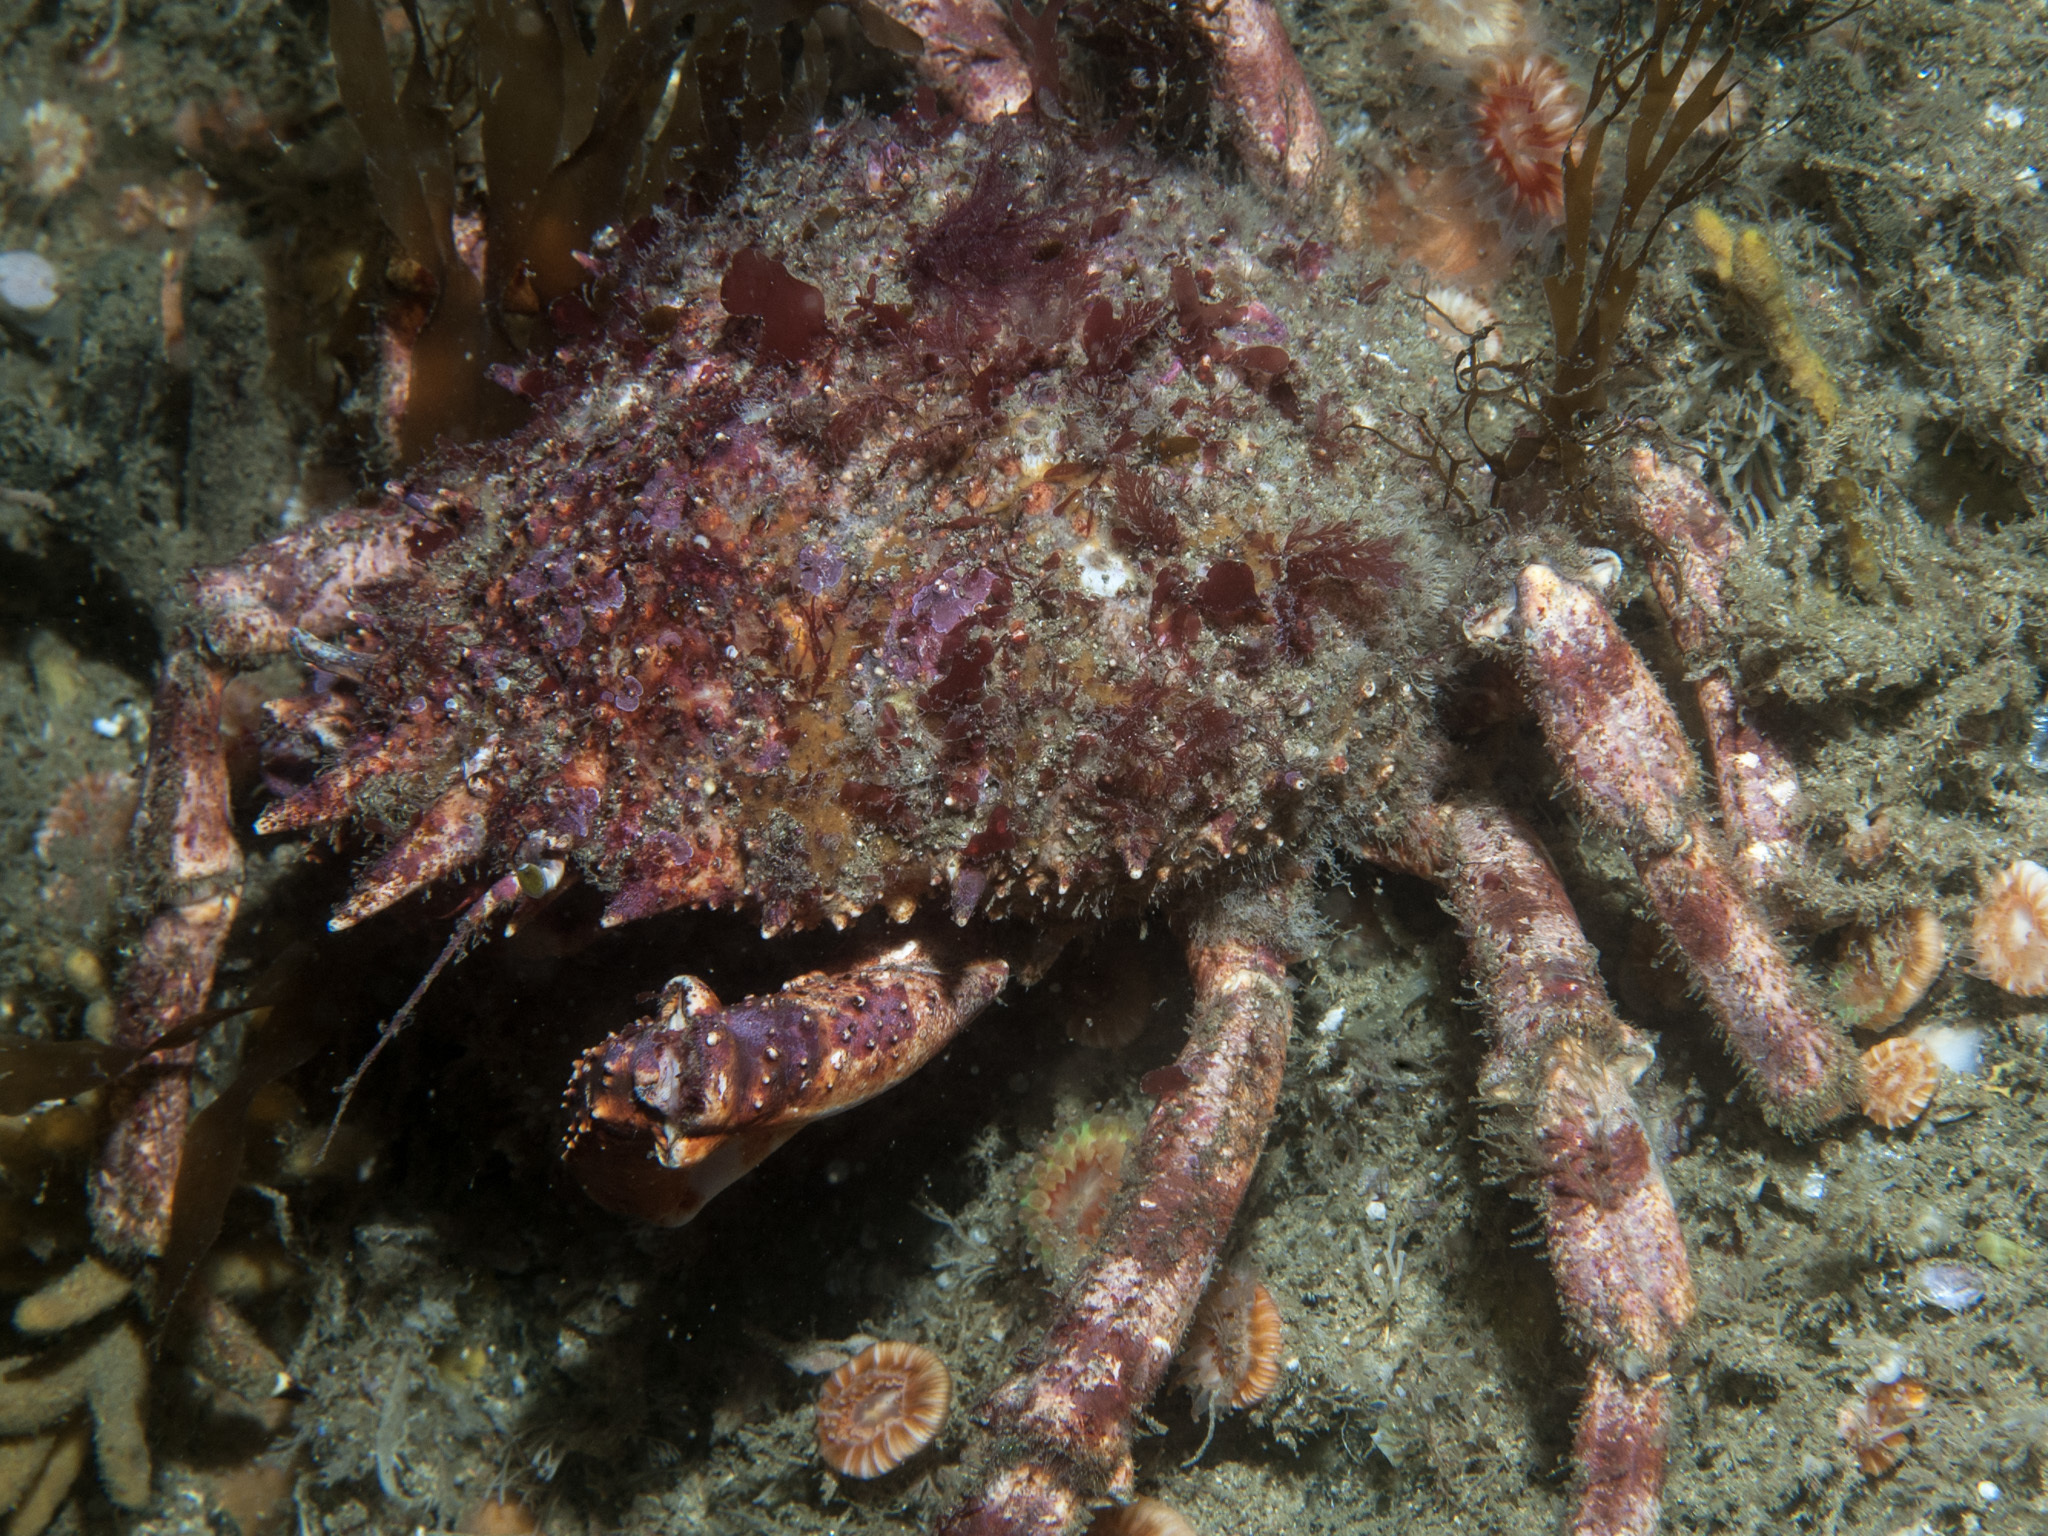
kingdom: Animalia
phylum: Arthropoda
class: Malacostraca
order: Decapoda
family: Majidae
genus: Maja
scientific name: Maja brachydactyla
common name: Common spider crab
